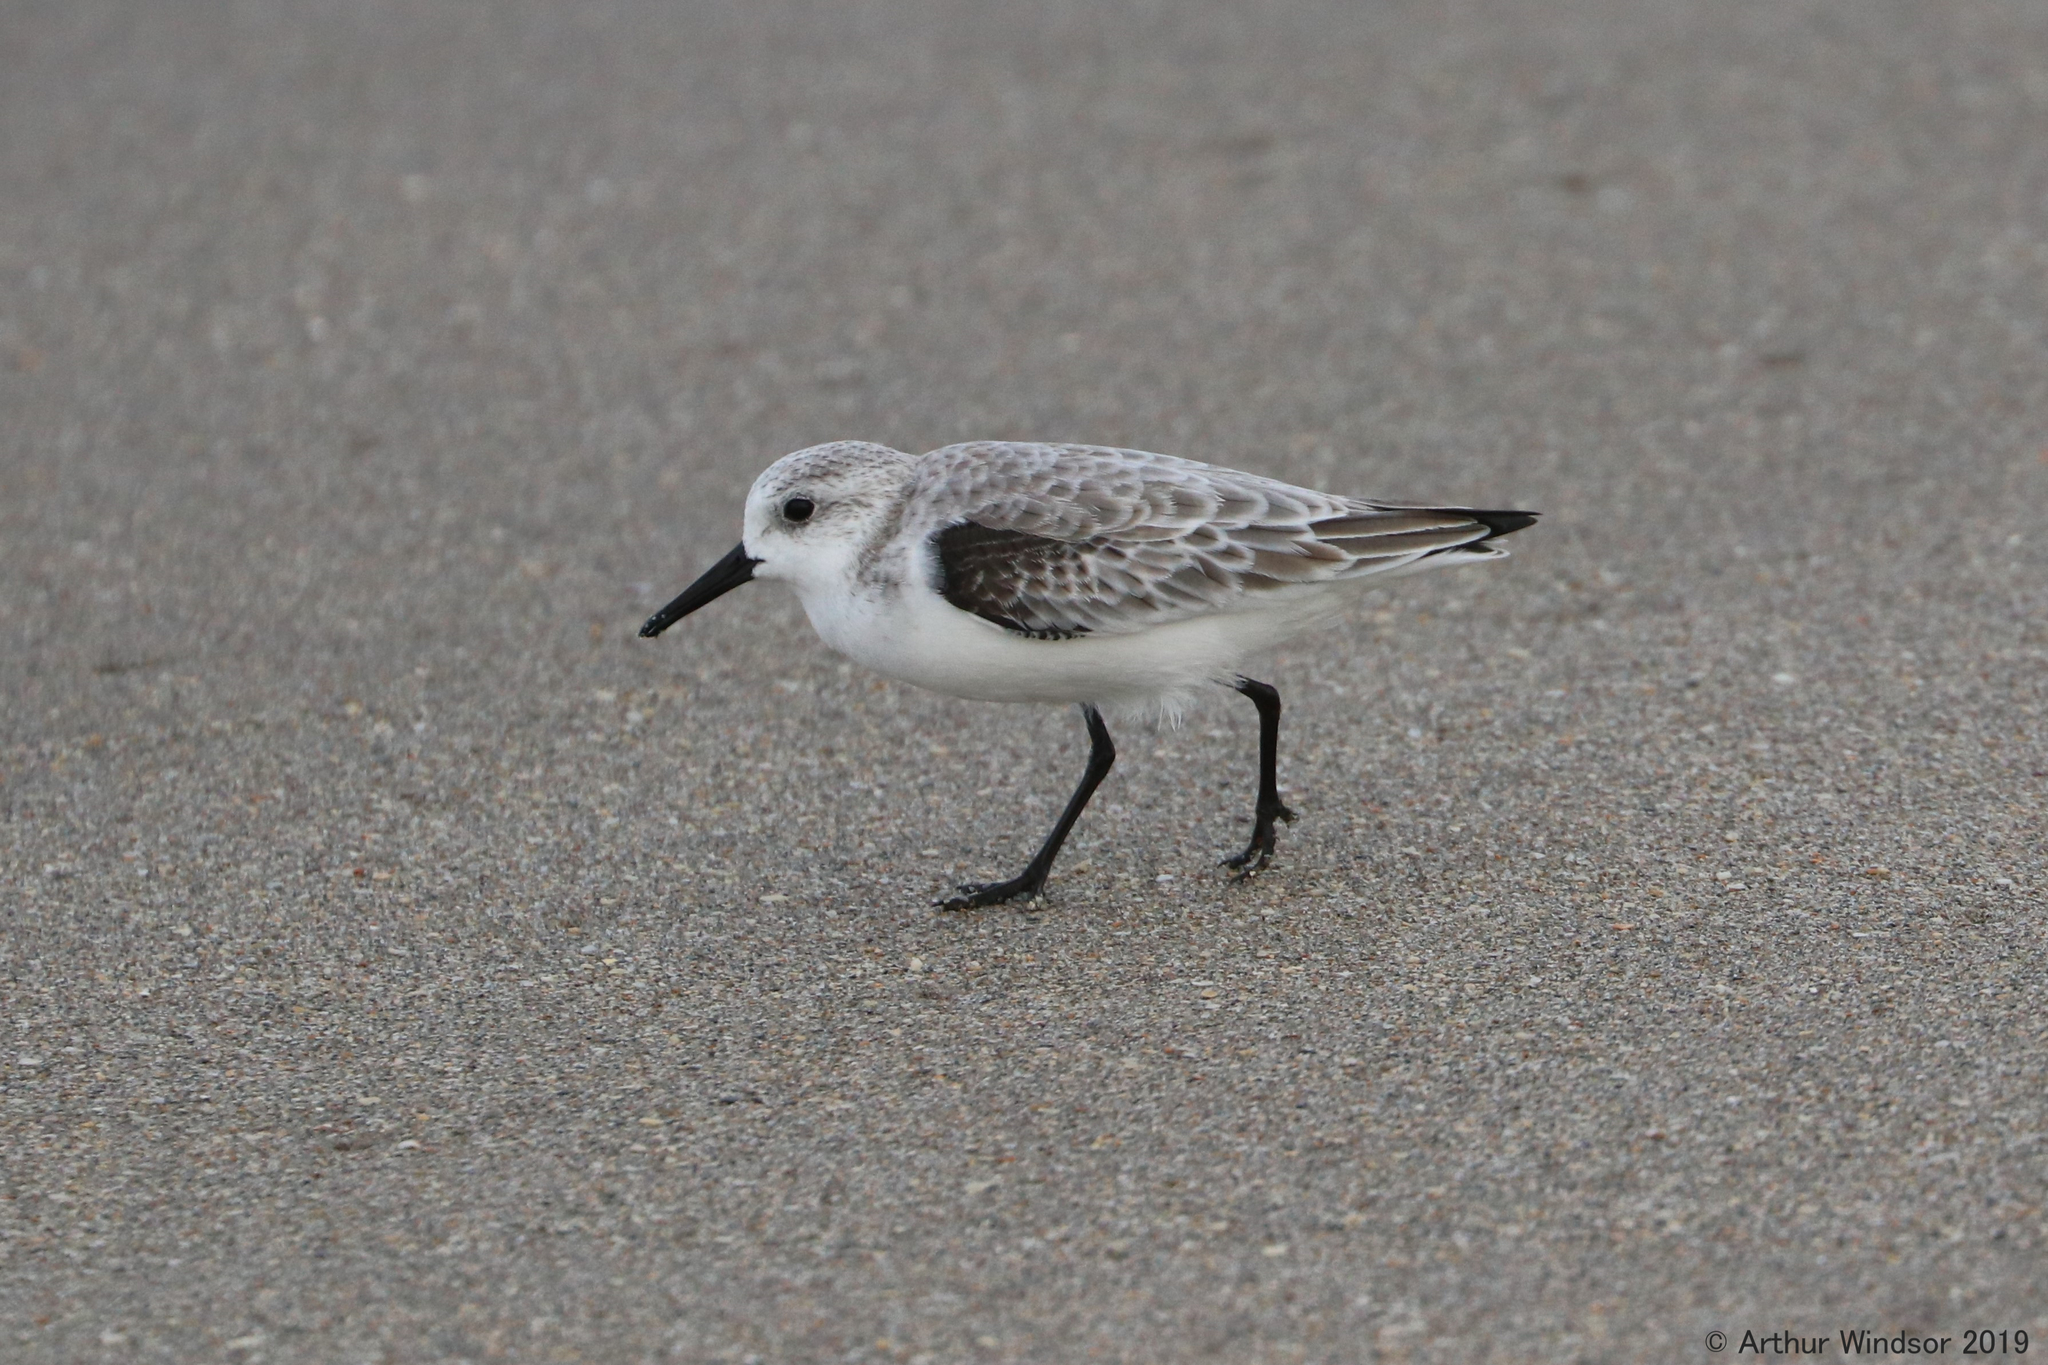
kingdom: Animalia
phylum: Chordata
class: Aves
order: Charadriiformes
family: Scolopacidae
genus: Calidris
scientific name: Calidris alba
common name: Sanderling
